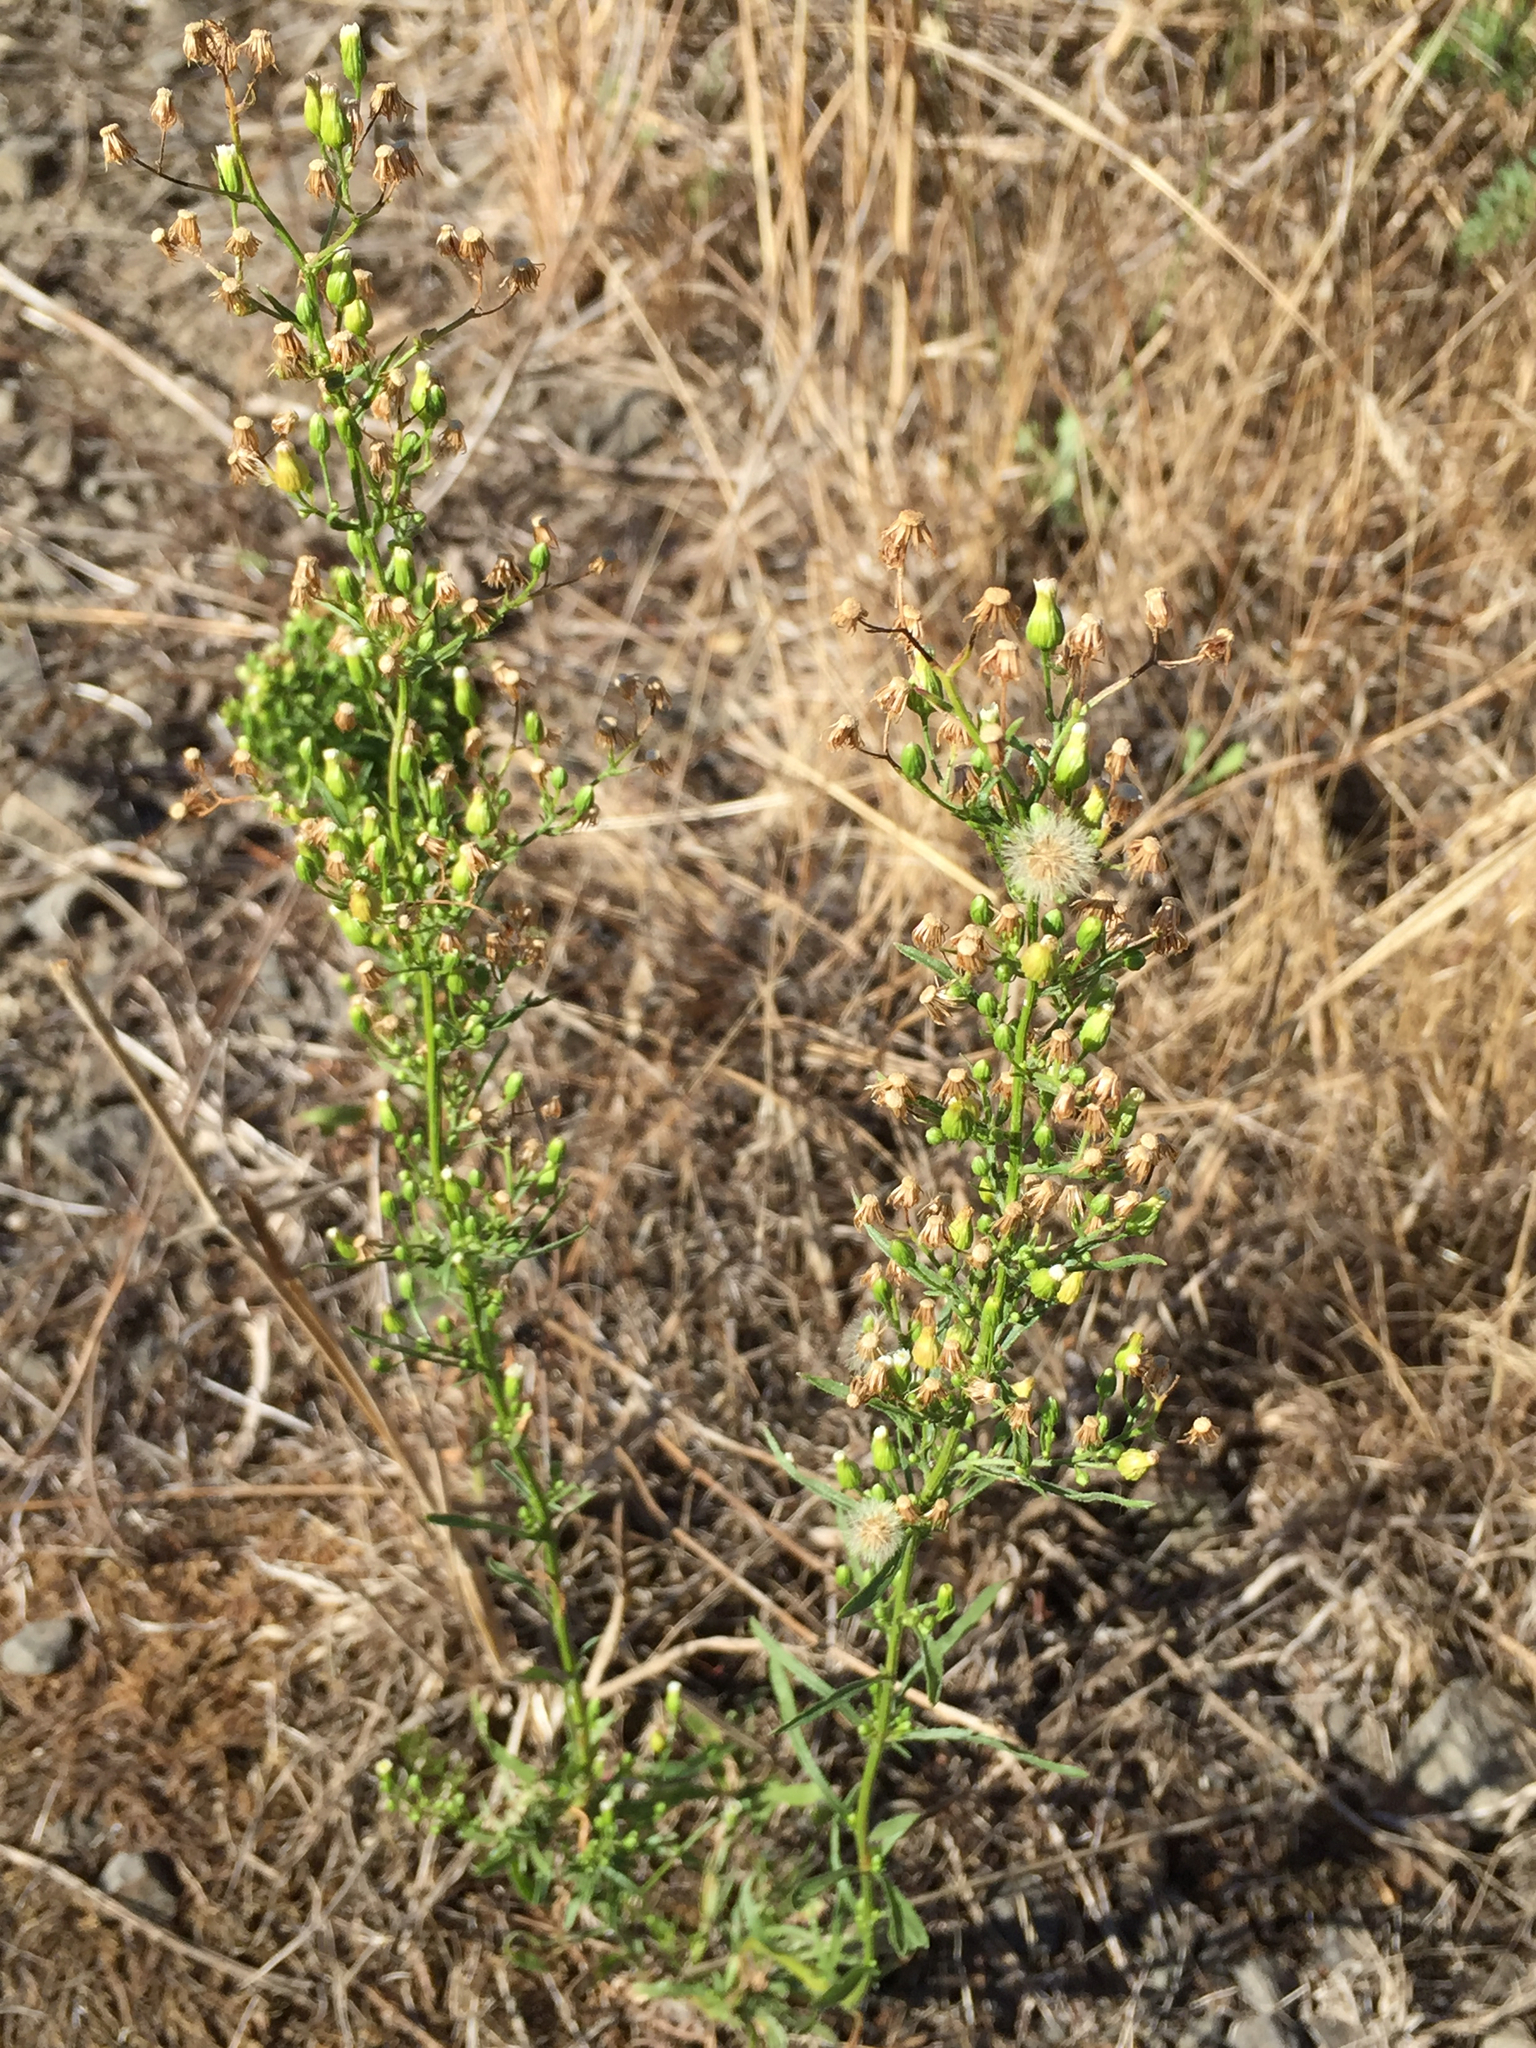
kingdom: Plantae
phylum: Tracheophyta
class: Magnoliopsida
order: Asterales
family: Asteraceae
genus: Erigeron
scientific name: Erigeron canadensis
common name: Canadian fleabane
